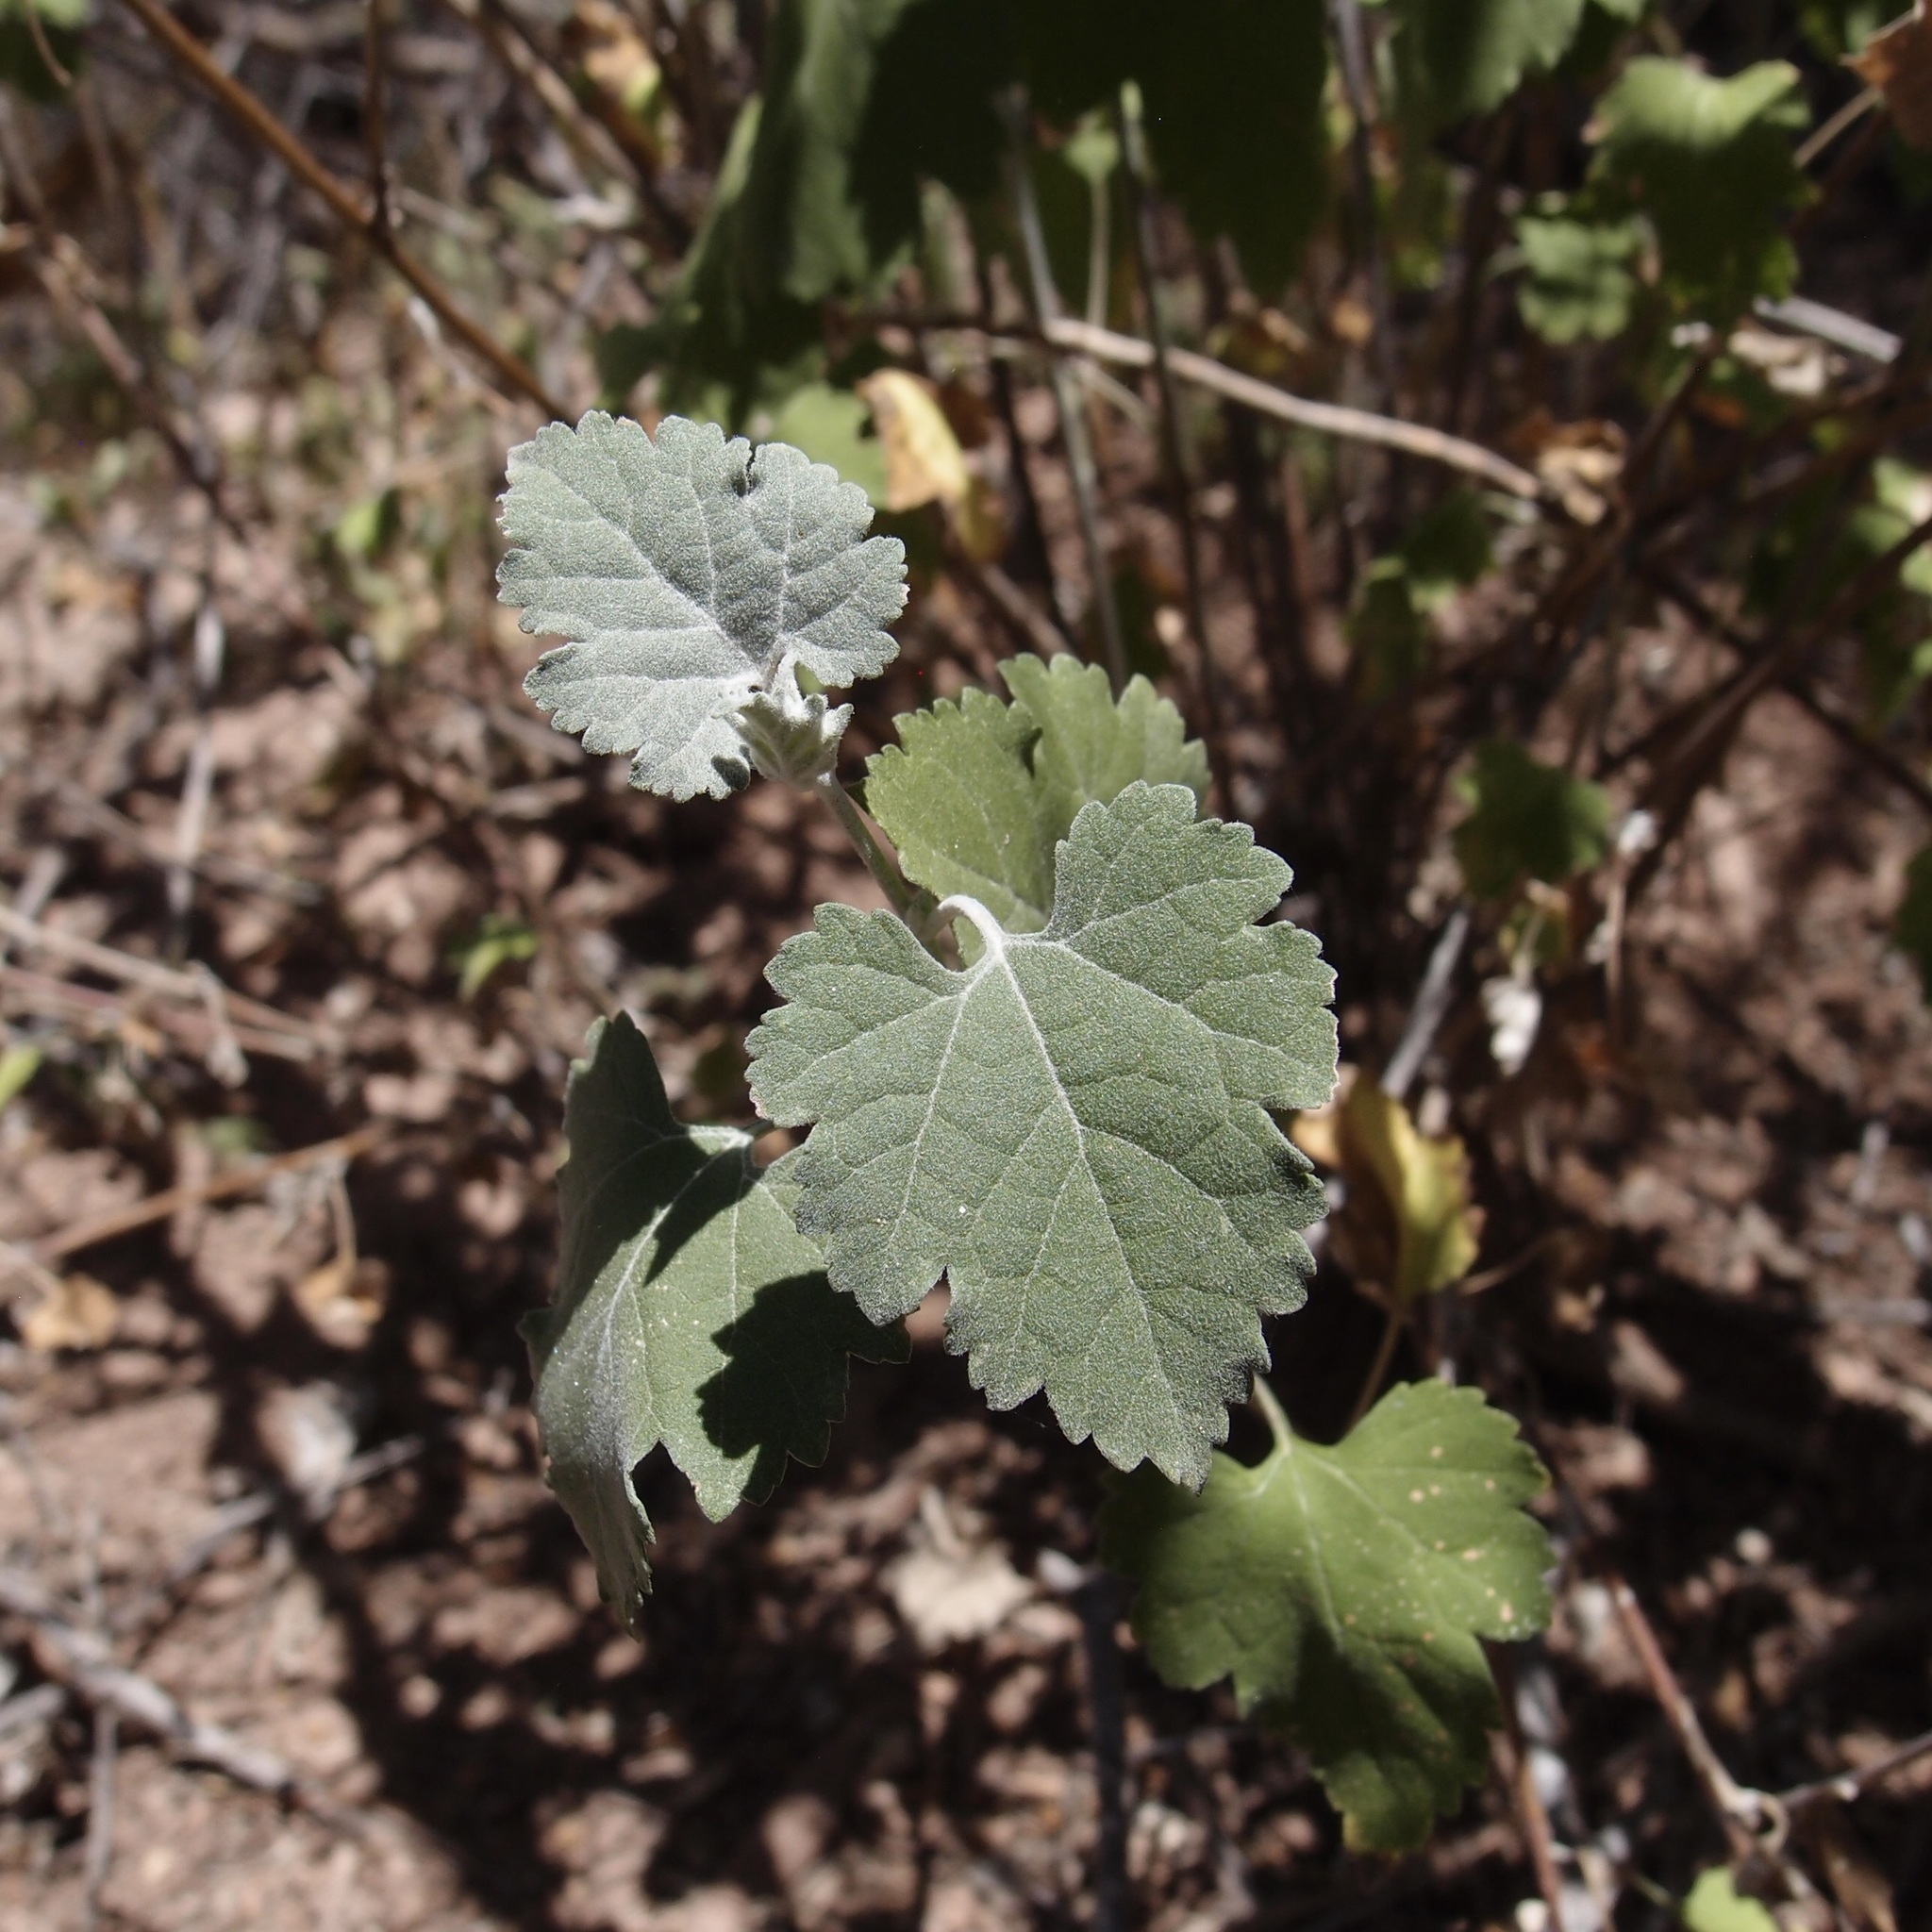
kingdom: Plantae
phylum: Tracheophyta
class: Magnoliopsida
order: Asterales
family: Asteraceae
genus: Ambrosia
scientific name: Ambrosia cordifolia
